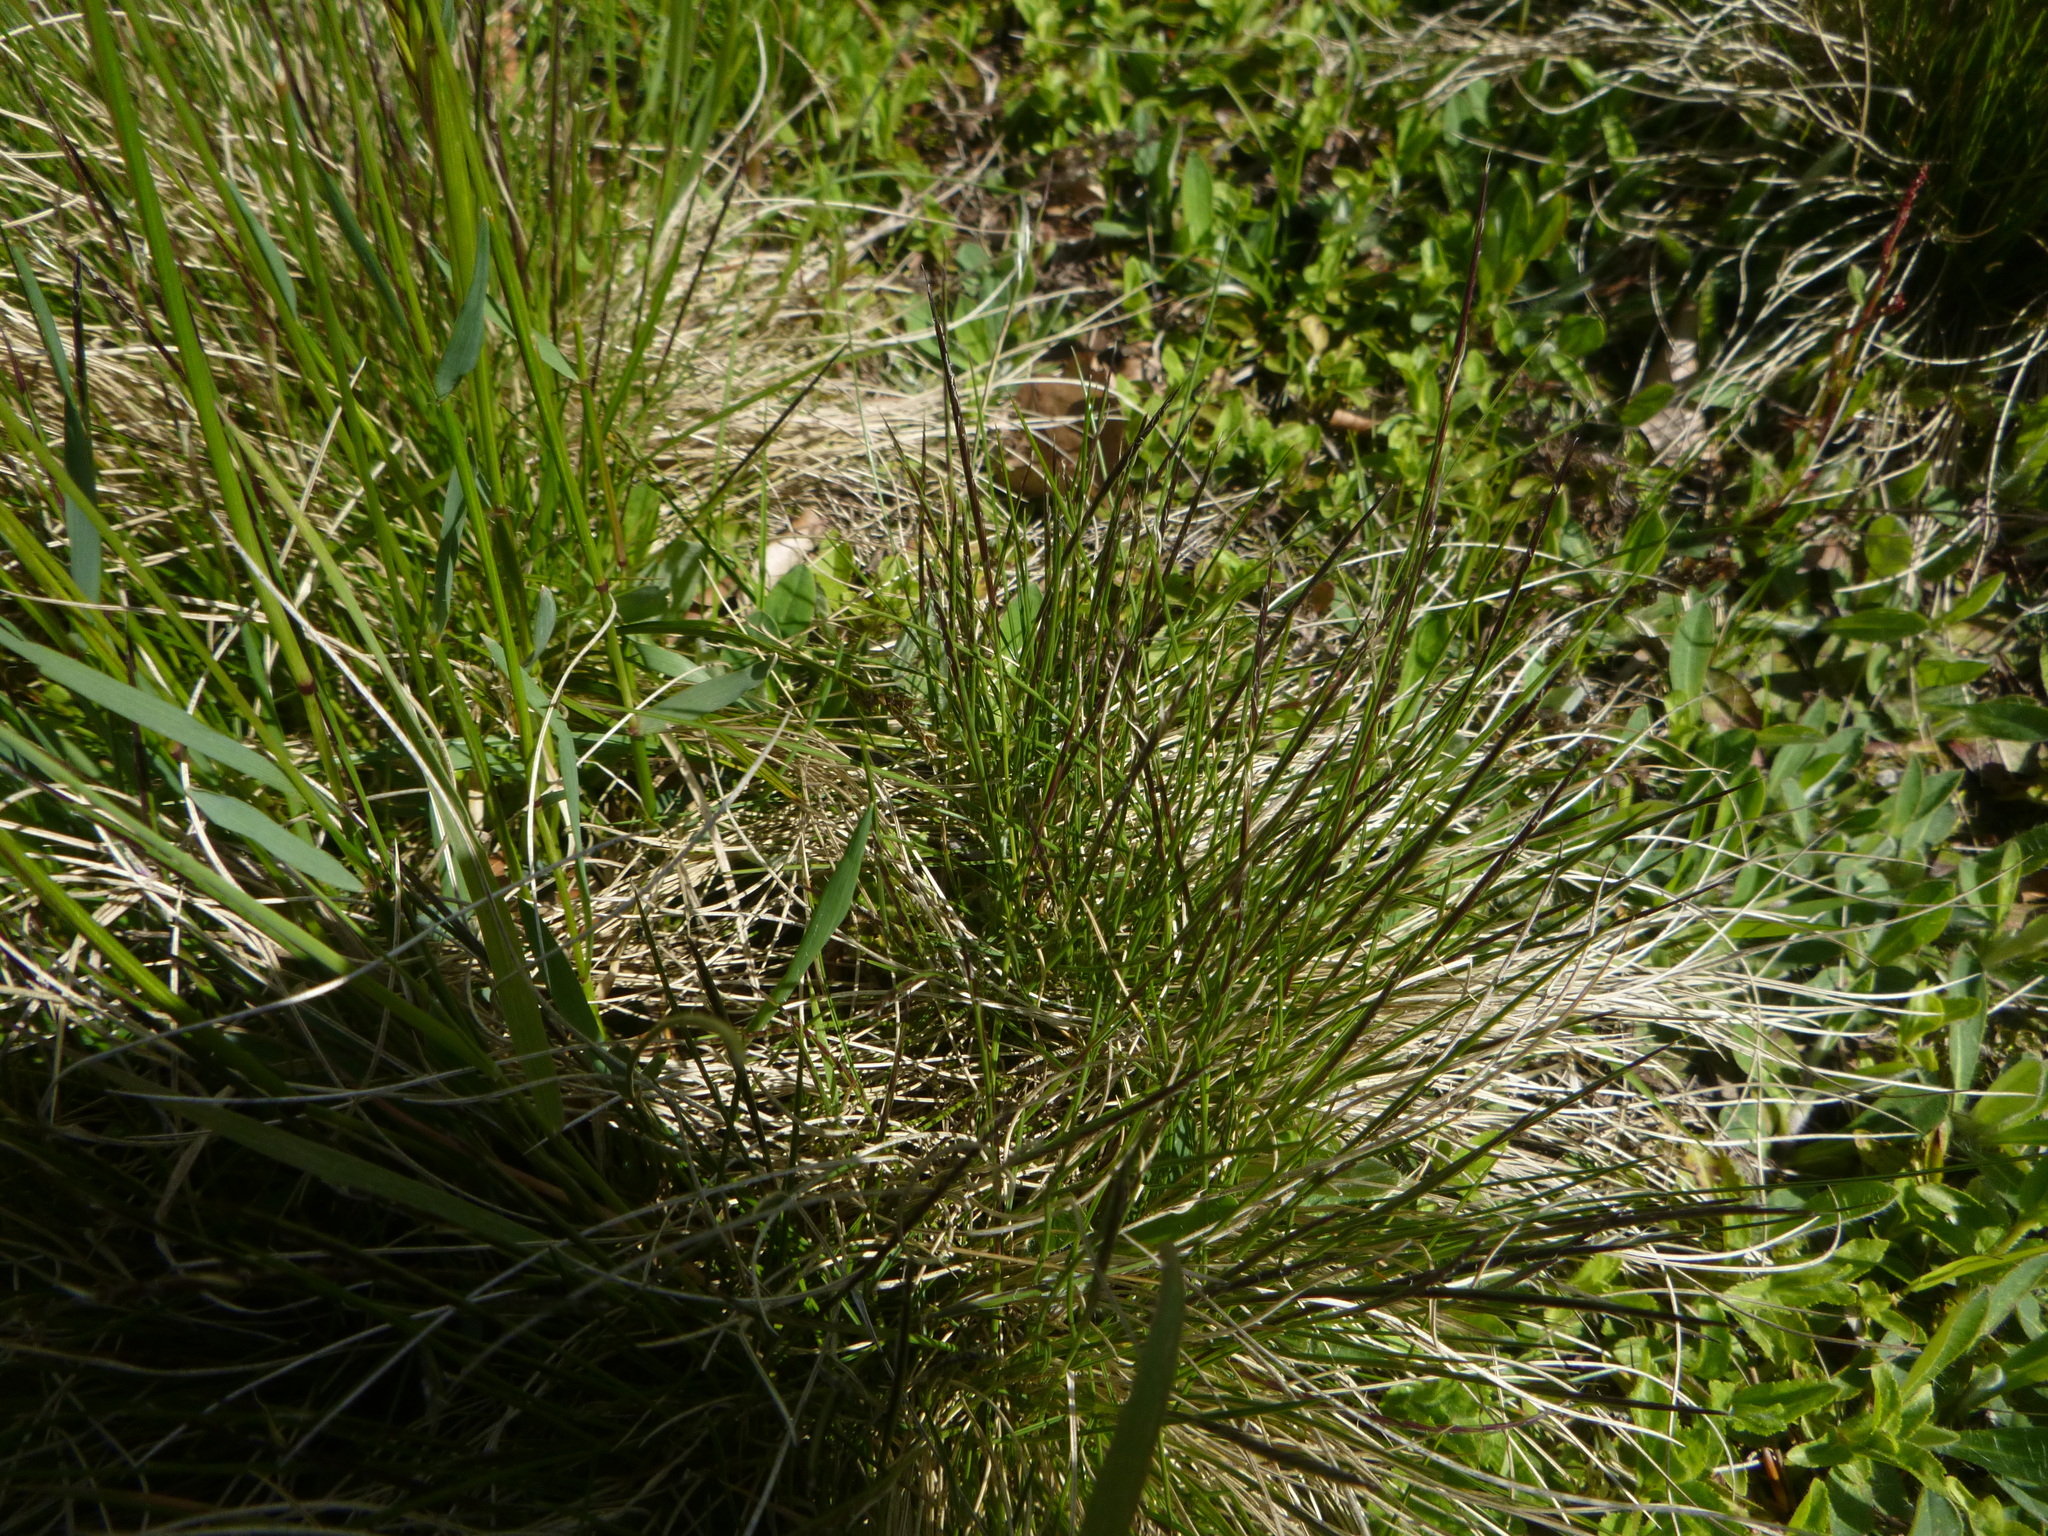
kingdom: Plantae
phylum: Tracheophyta
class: Liliopsida
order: Poales
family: Poaceae
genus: Nardus
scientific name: Nardus stricta
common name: Mat-grass
